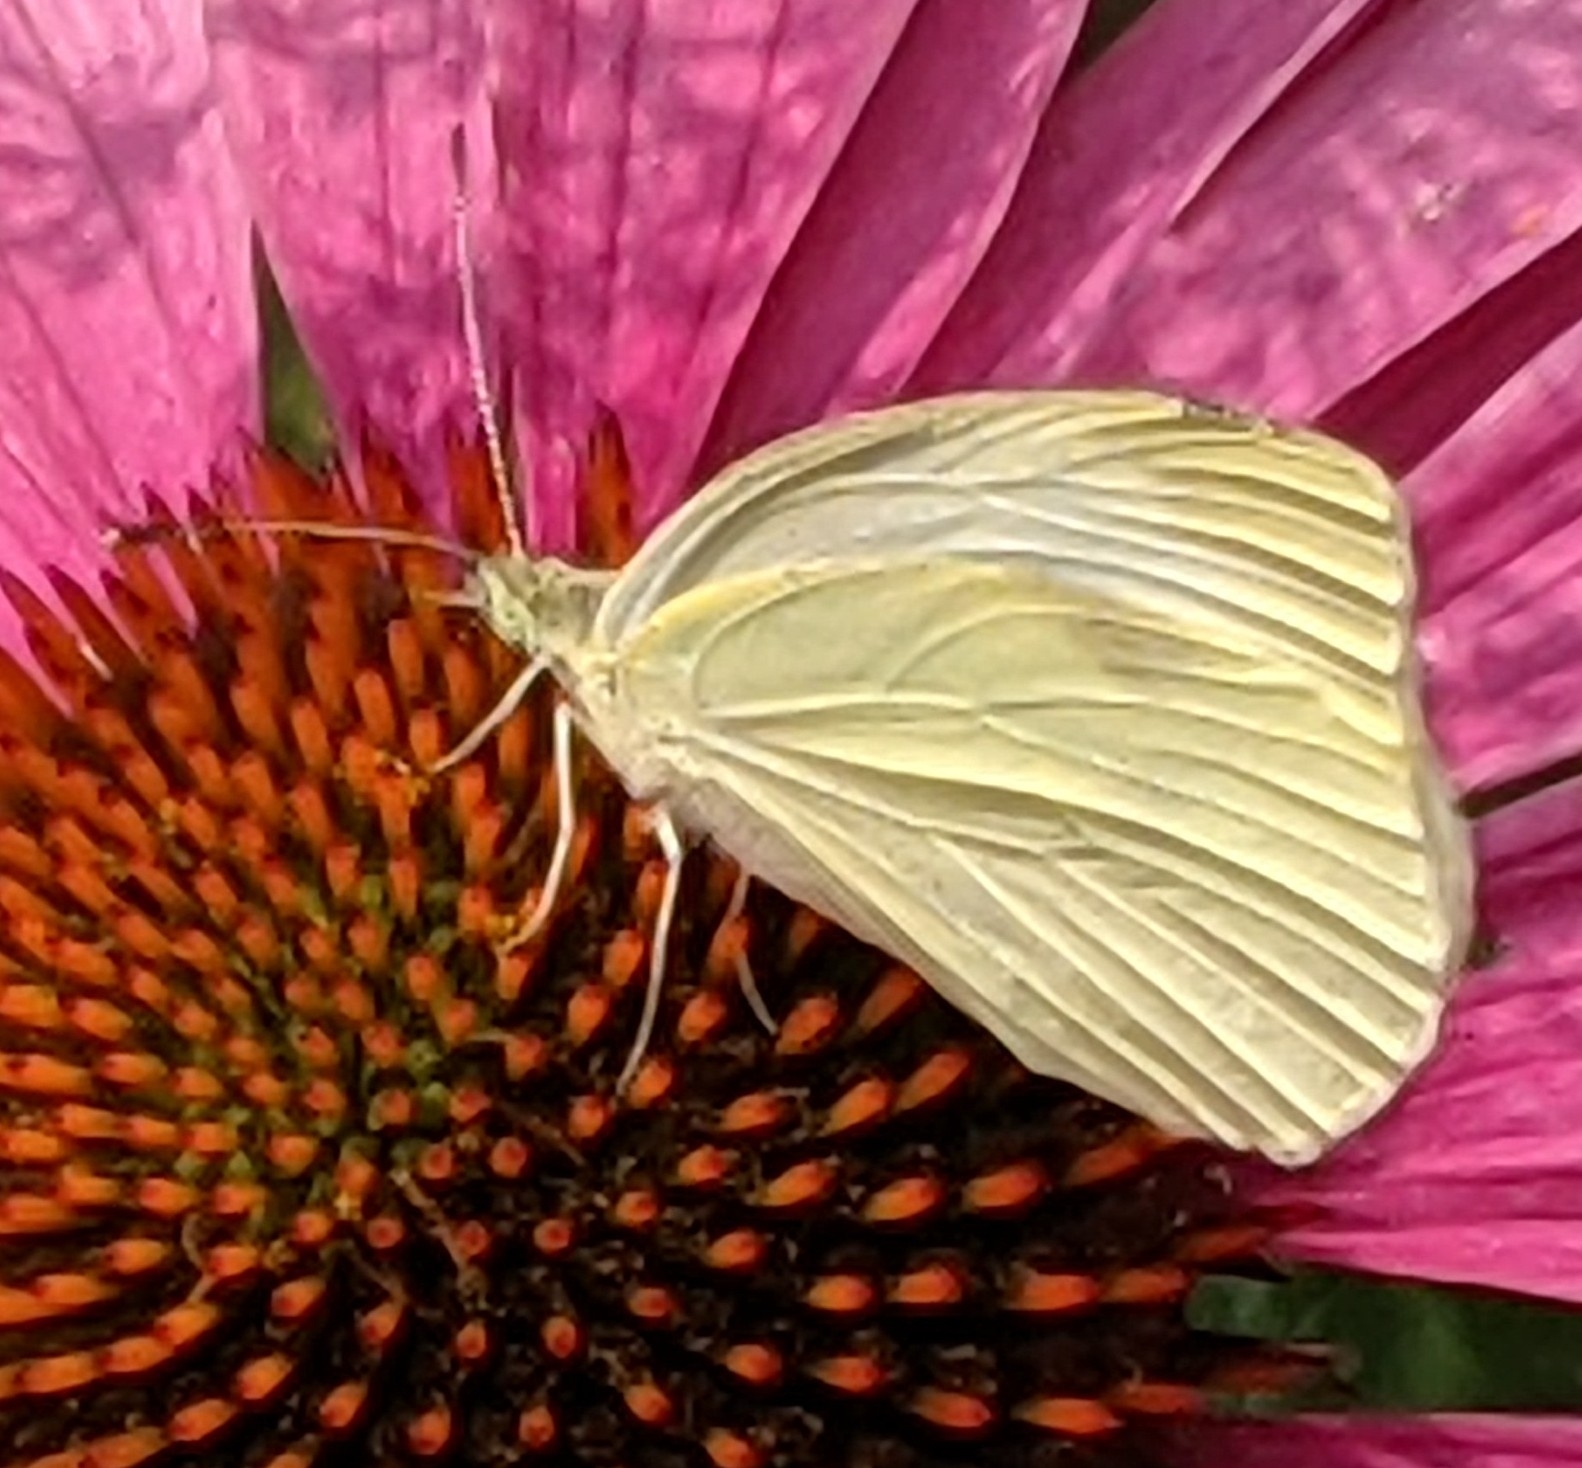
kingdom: Animalia
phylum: Arthropoda
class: Insecta
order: Lepidoptera
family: Pieridae
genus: Pieris
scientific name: Pieris rapae
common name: Small white
